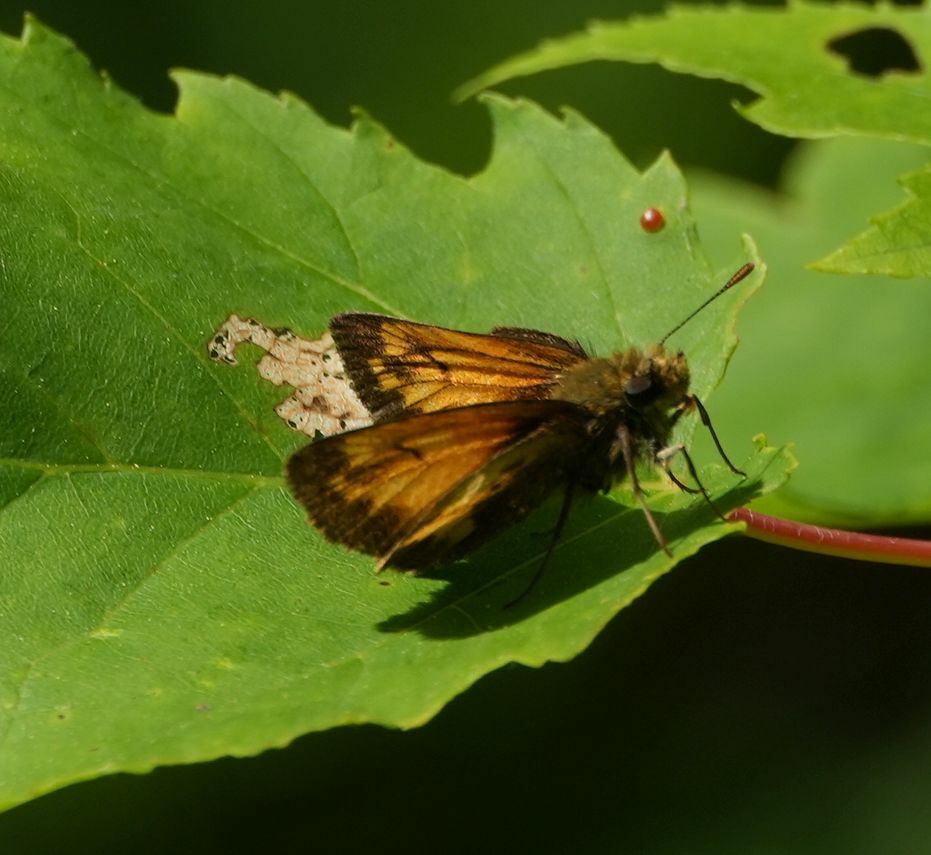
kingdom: Animalia
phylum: Arthropoda
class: Insecta
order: Lepidoptera
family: Hesperiidae
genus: Lon
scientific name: Lon hobomok
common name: Hobomok skipper
